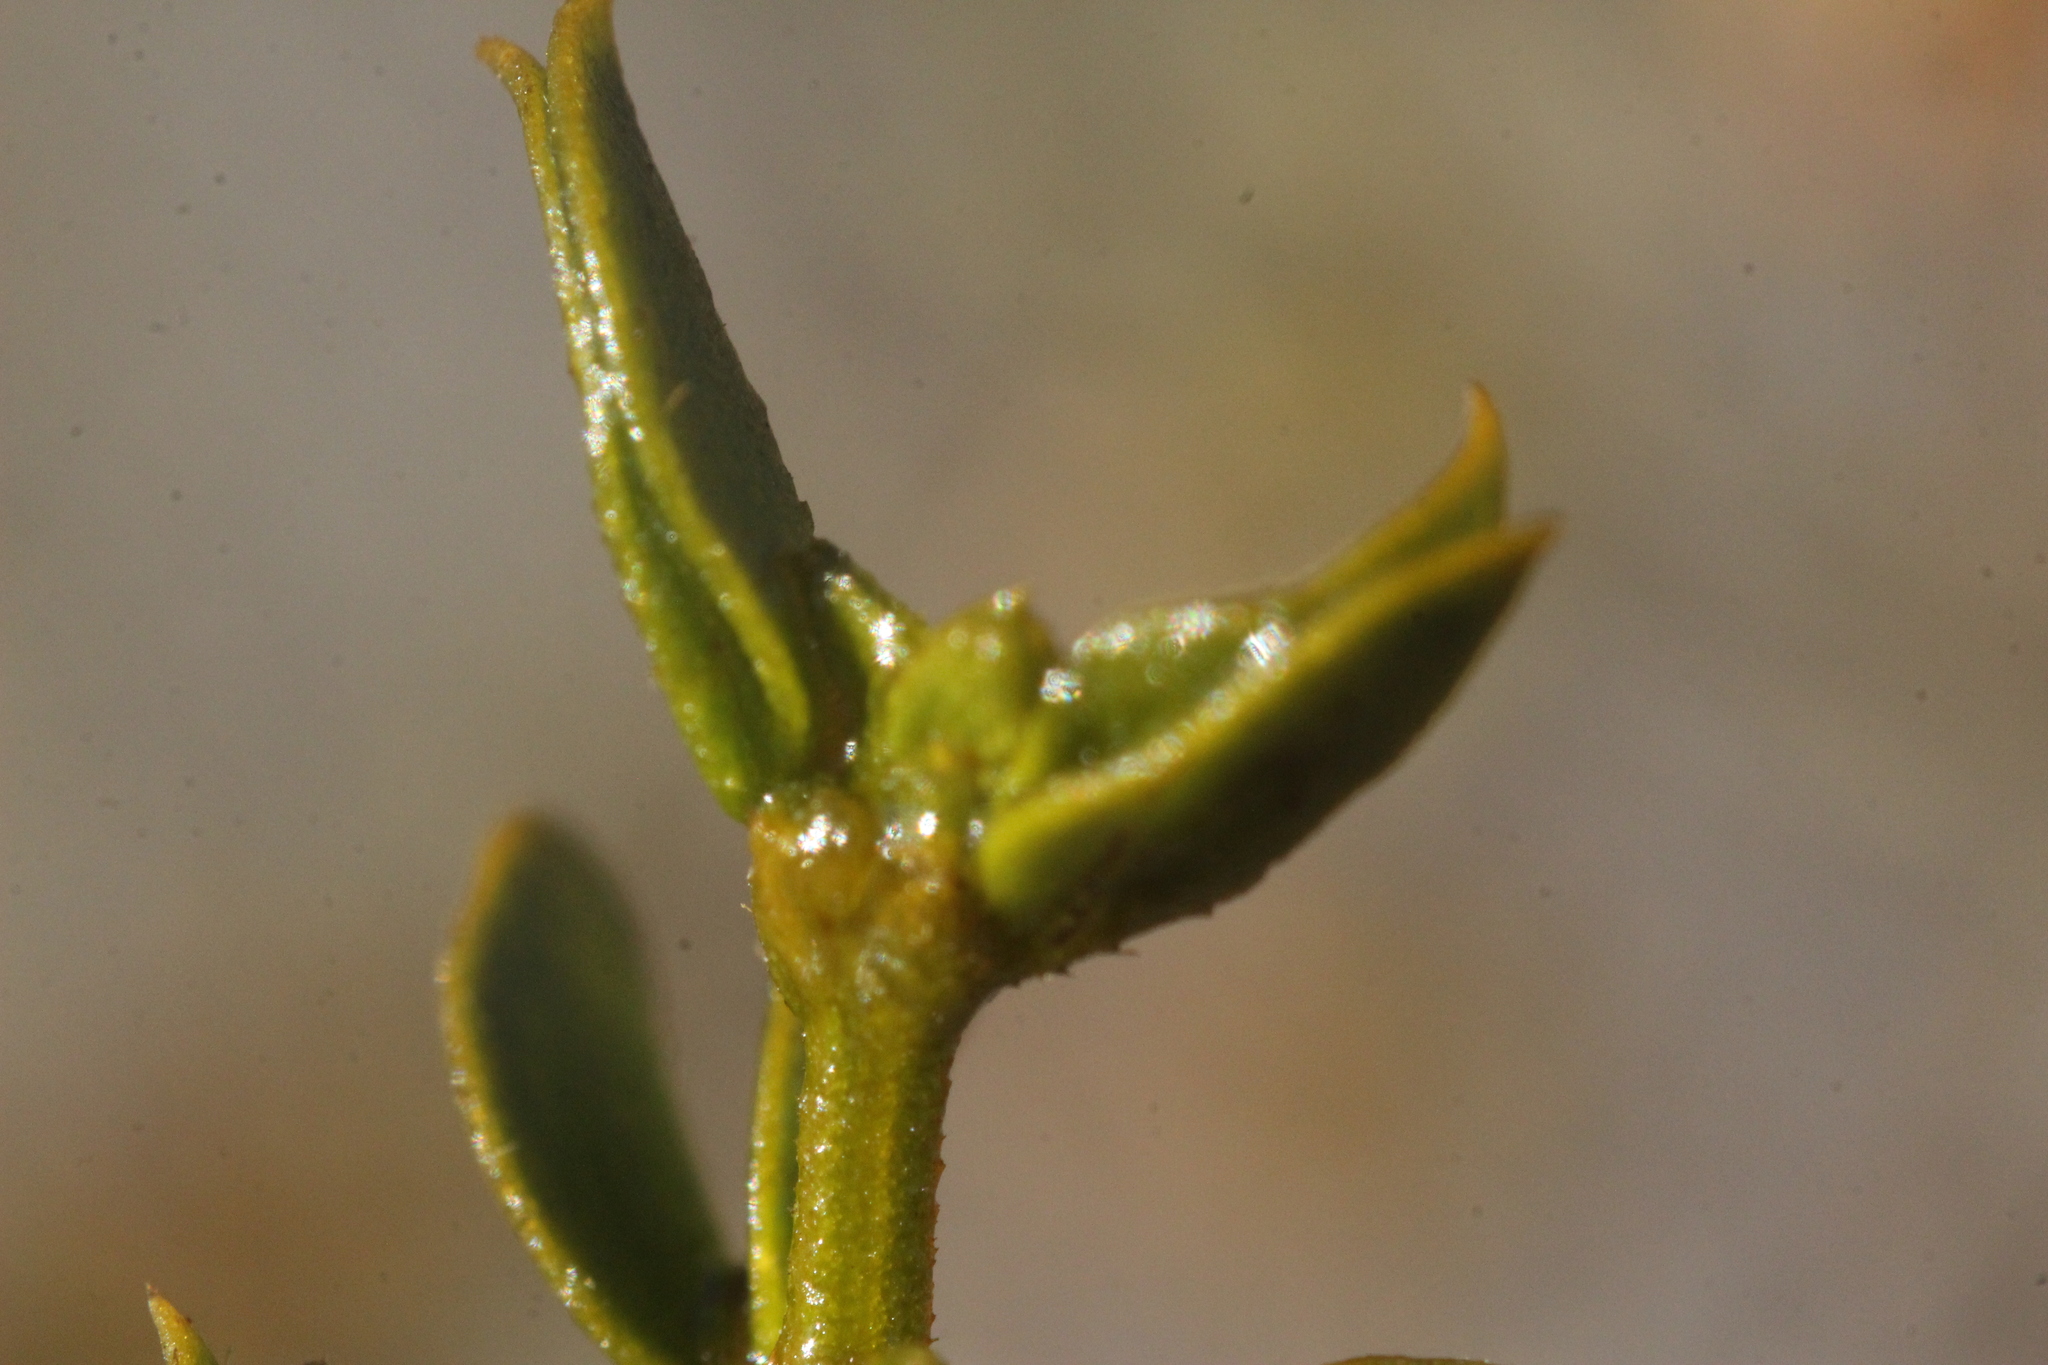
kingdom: Plantae
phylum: Tracheophyta
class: Magnoliopsida
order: Zygophyllales
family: Zygophyllaceae
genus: Larrea
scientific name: Larrea tridentata
